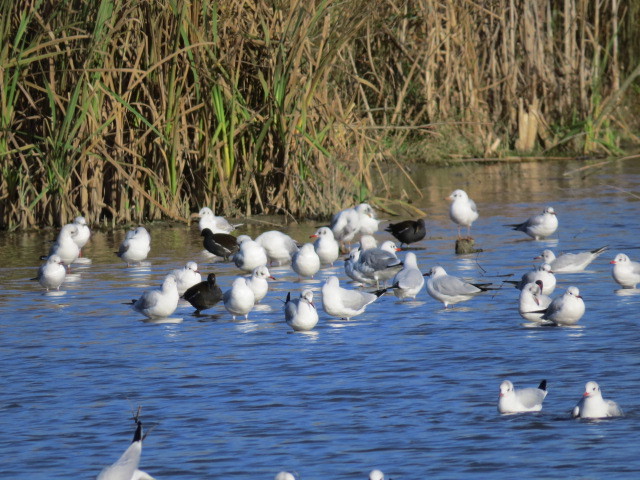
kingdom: Animalia
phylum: Chordata
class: Aves
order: Gruiformes
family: Rallidae
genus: Gallinula
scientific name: Gallinula chloropus
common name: Common moorhen
